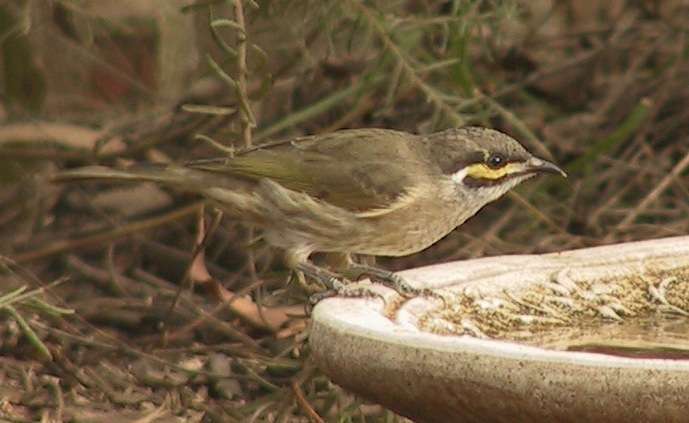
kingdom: Animalia
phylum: Chordata
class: Aves
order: Passeriformes
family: Meliphagidae
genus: Caligavis
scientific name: Caligavis chrysops
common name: Yellow-faced honeyeater
